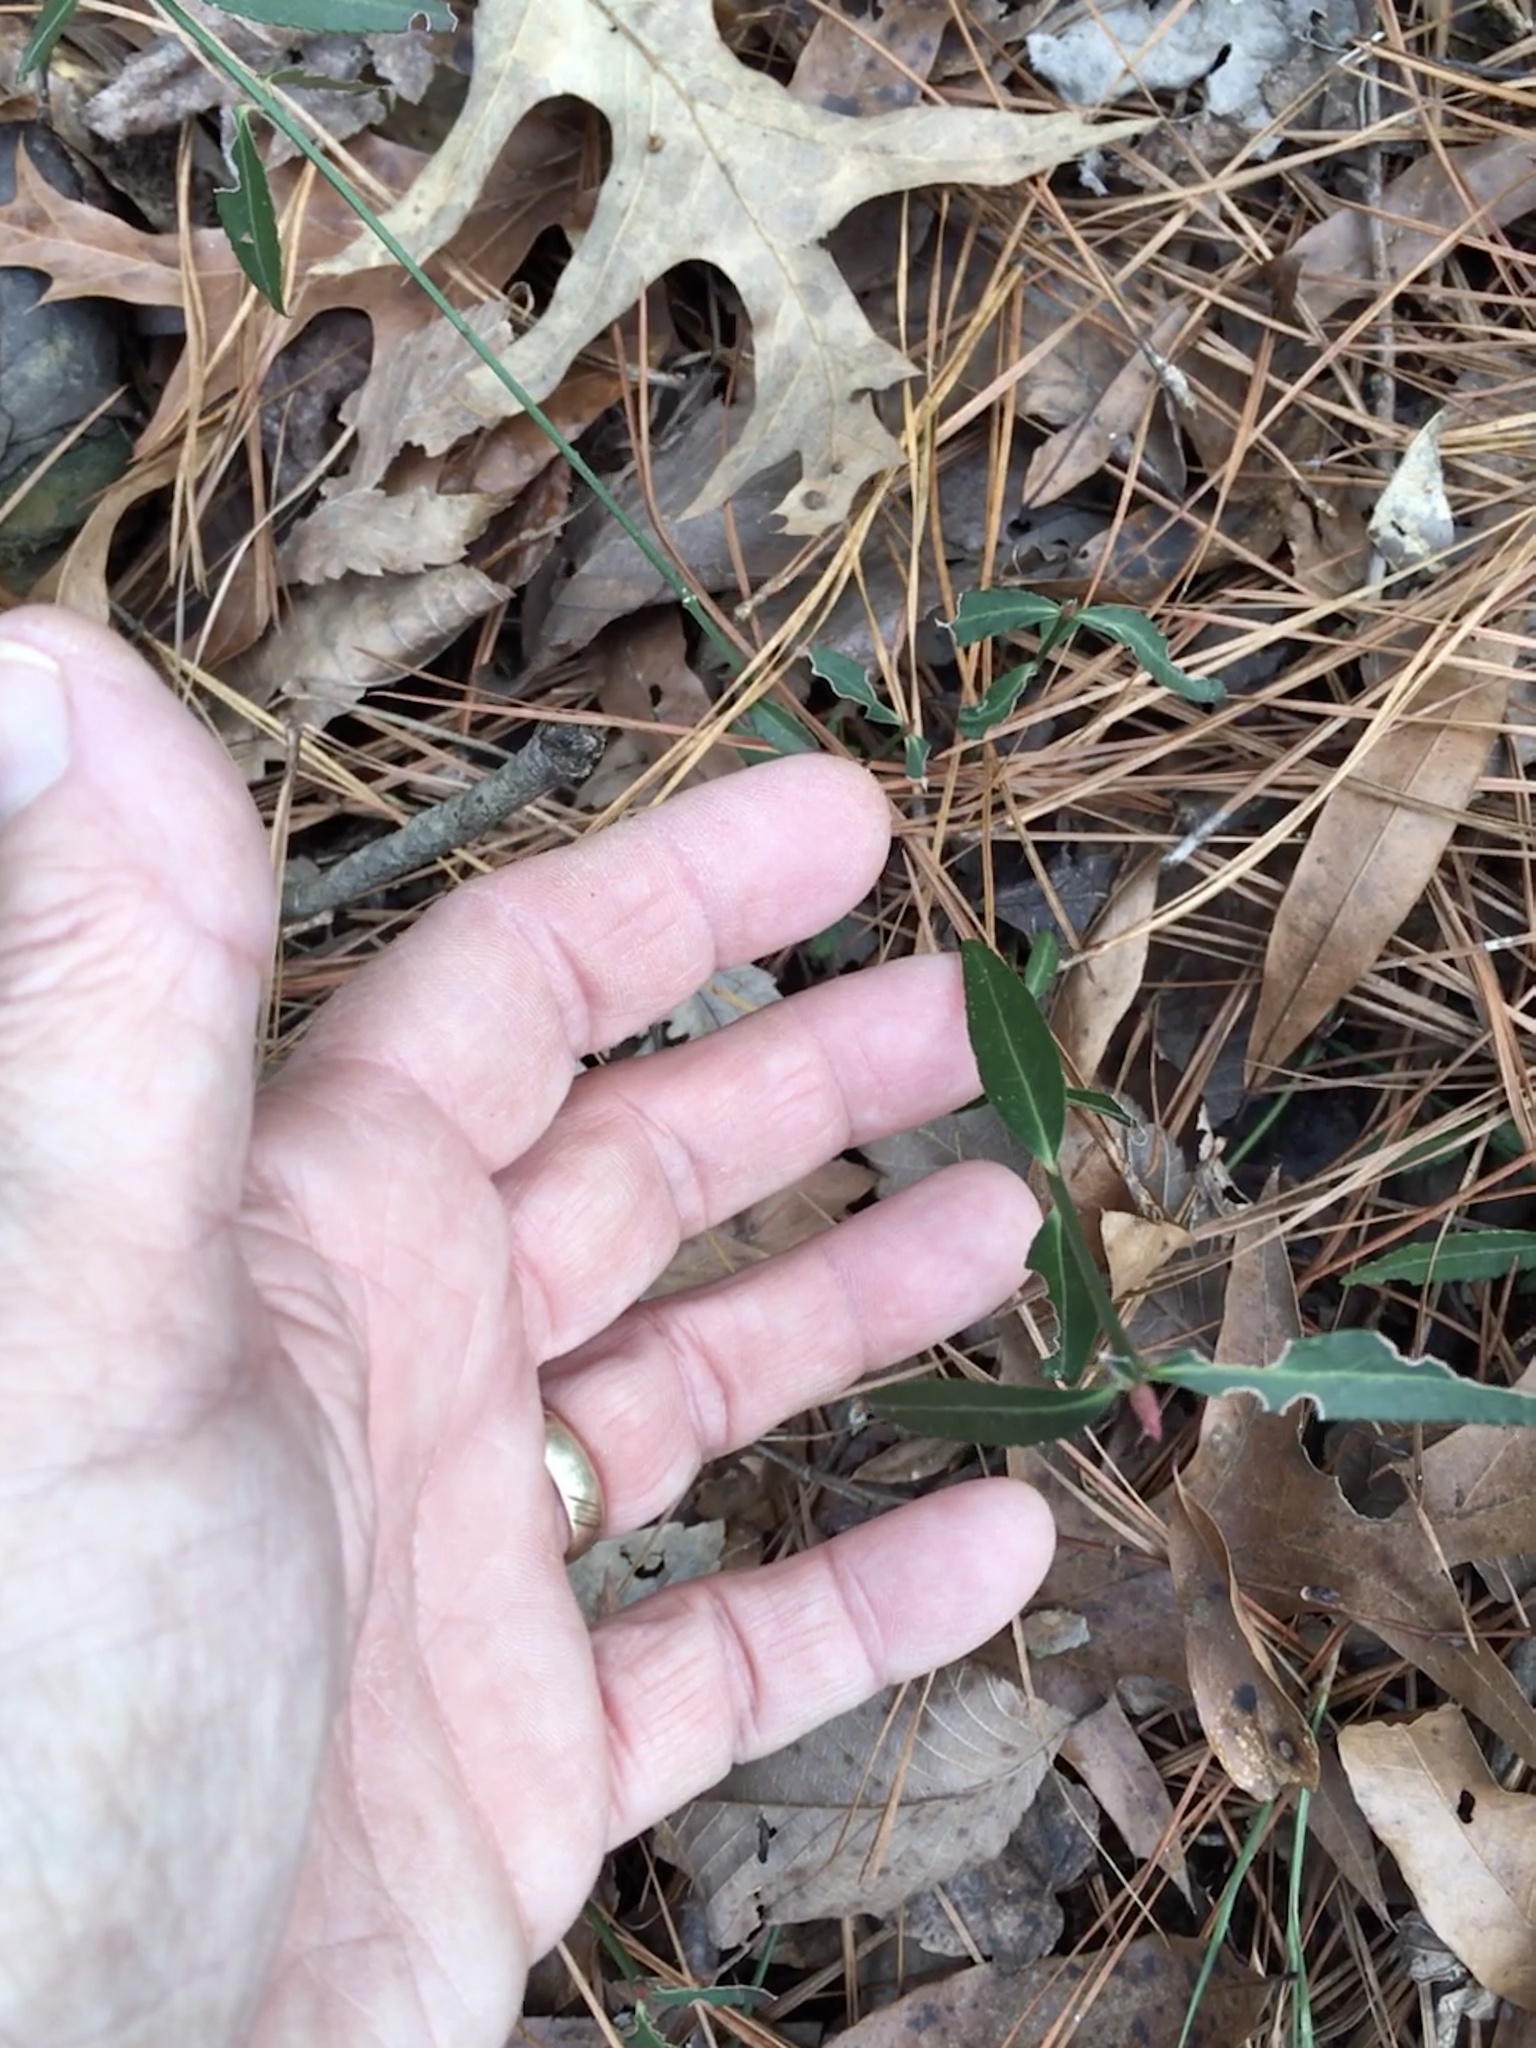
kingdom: Plantae
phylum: Tracheophyta
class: Magnoliopsida
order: Celastrales
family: Celastraceae
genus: Euonymus
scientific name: Euonymus americanus
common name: Bursting-heart
